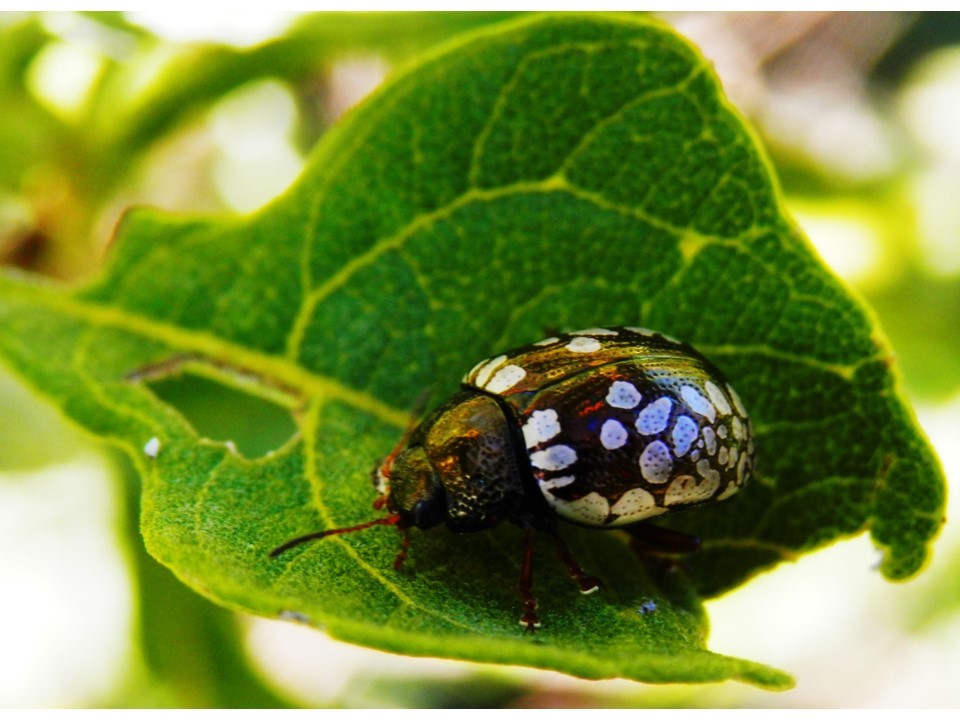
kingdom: Animalia
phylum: Arthropoda
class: Insecta
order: Coleoptera
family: Chrysomelidae
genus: Calligrapha
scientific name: Calligrapha barda
